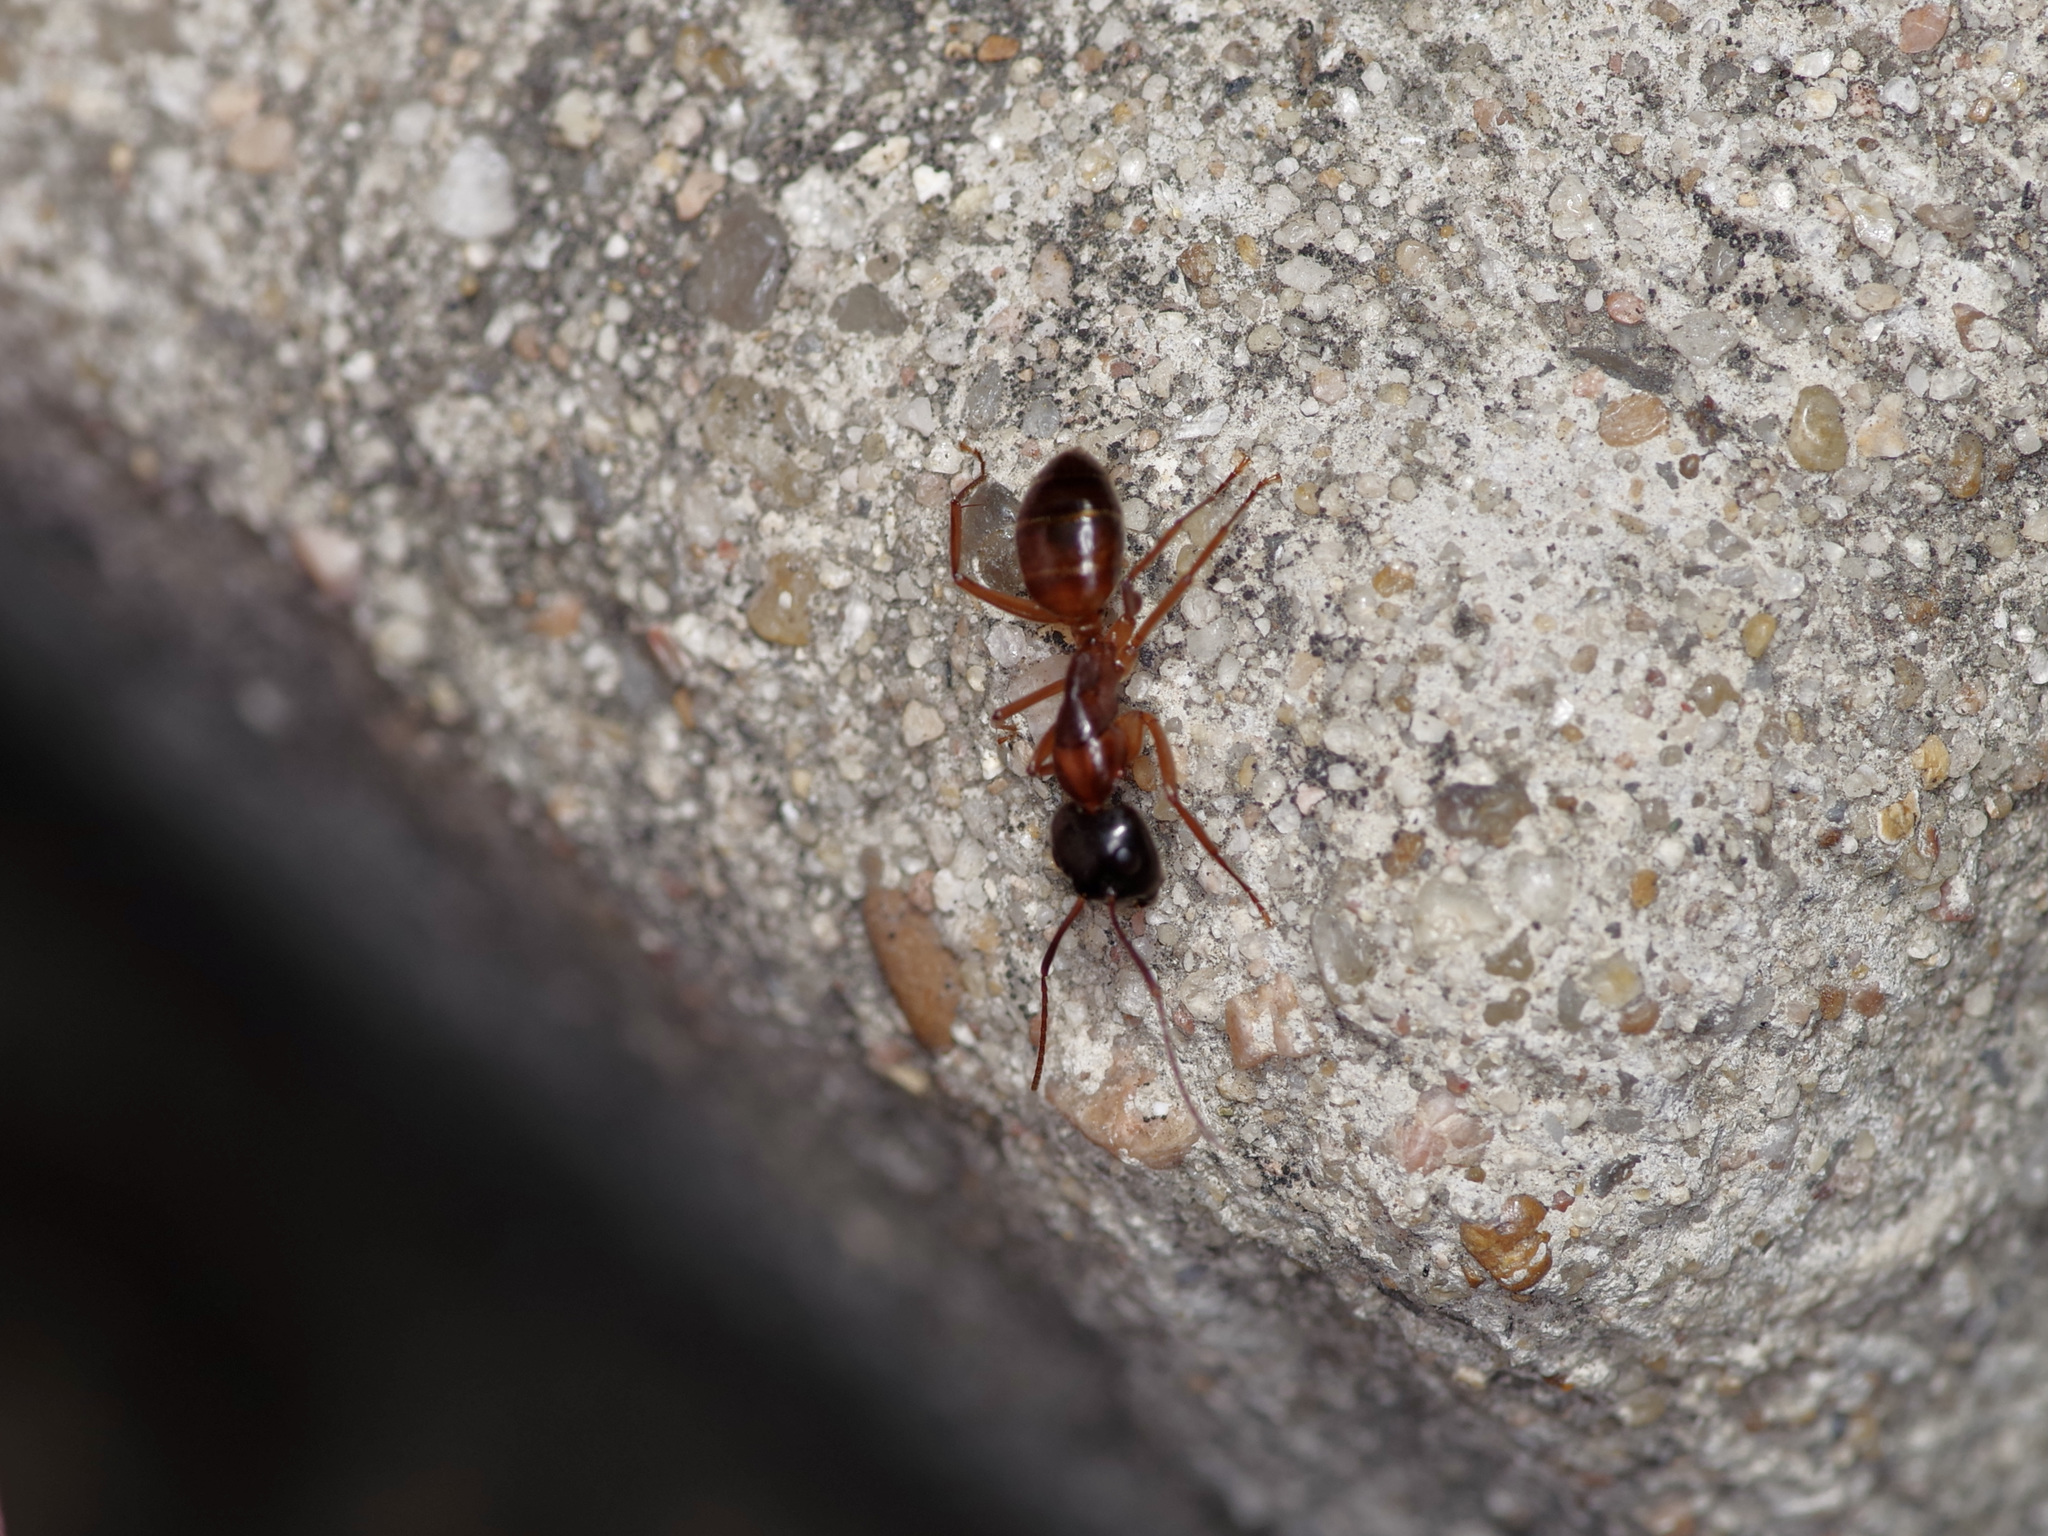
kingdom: Animalia
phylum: Arthropoda
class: Insecta
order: Hymenoptera
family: Formicidae
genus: Camponotus
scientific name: Camponotus sansabeanus
